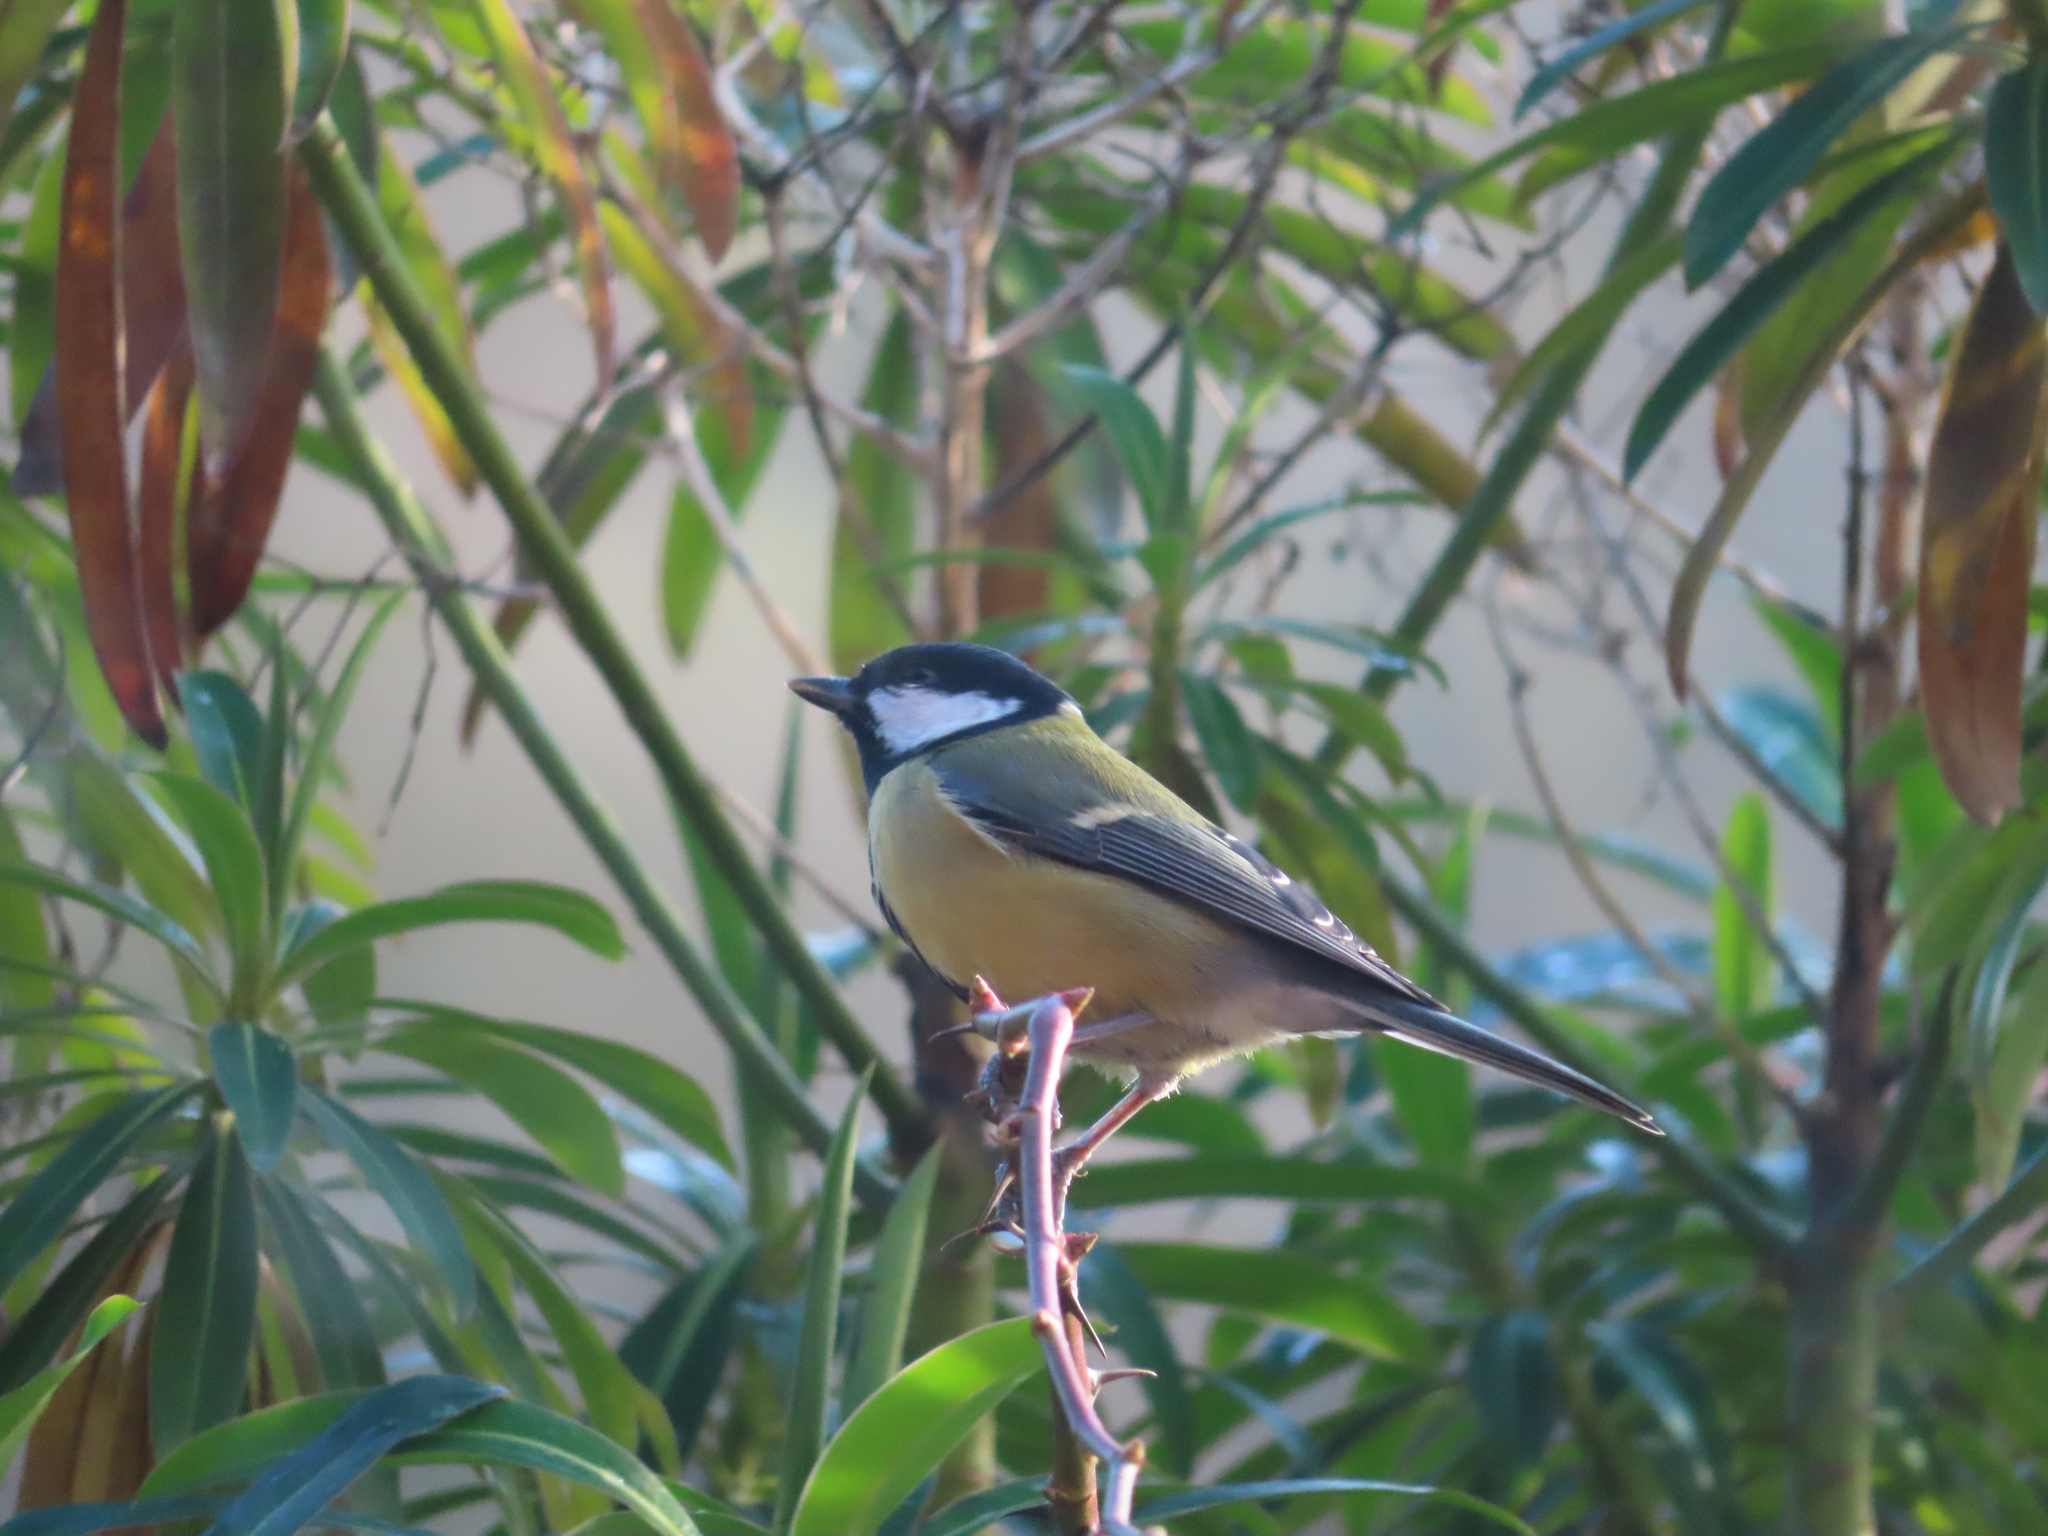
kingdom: Animalia
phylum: Chordata
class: Aves
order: Passeriformes
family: Paridae
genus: Parus
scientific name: Parus major
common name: Great tit
